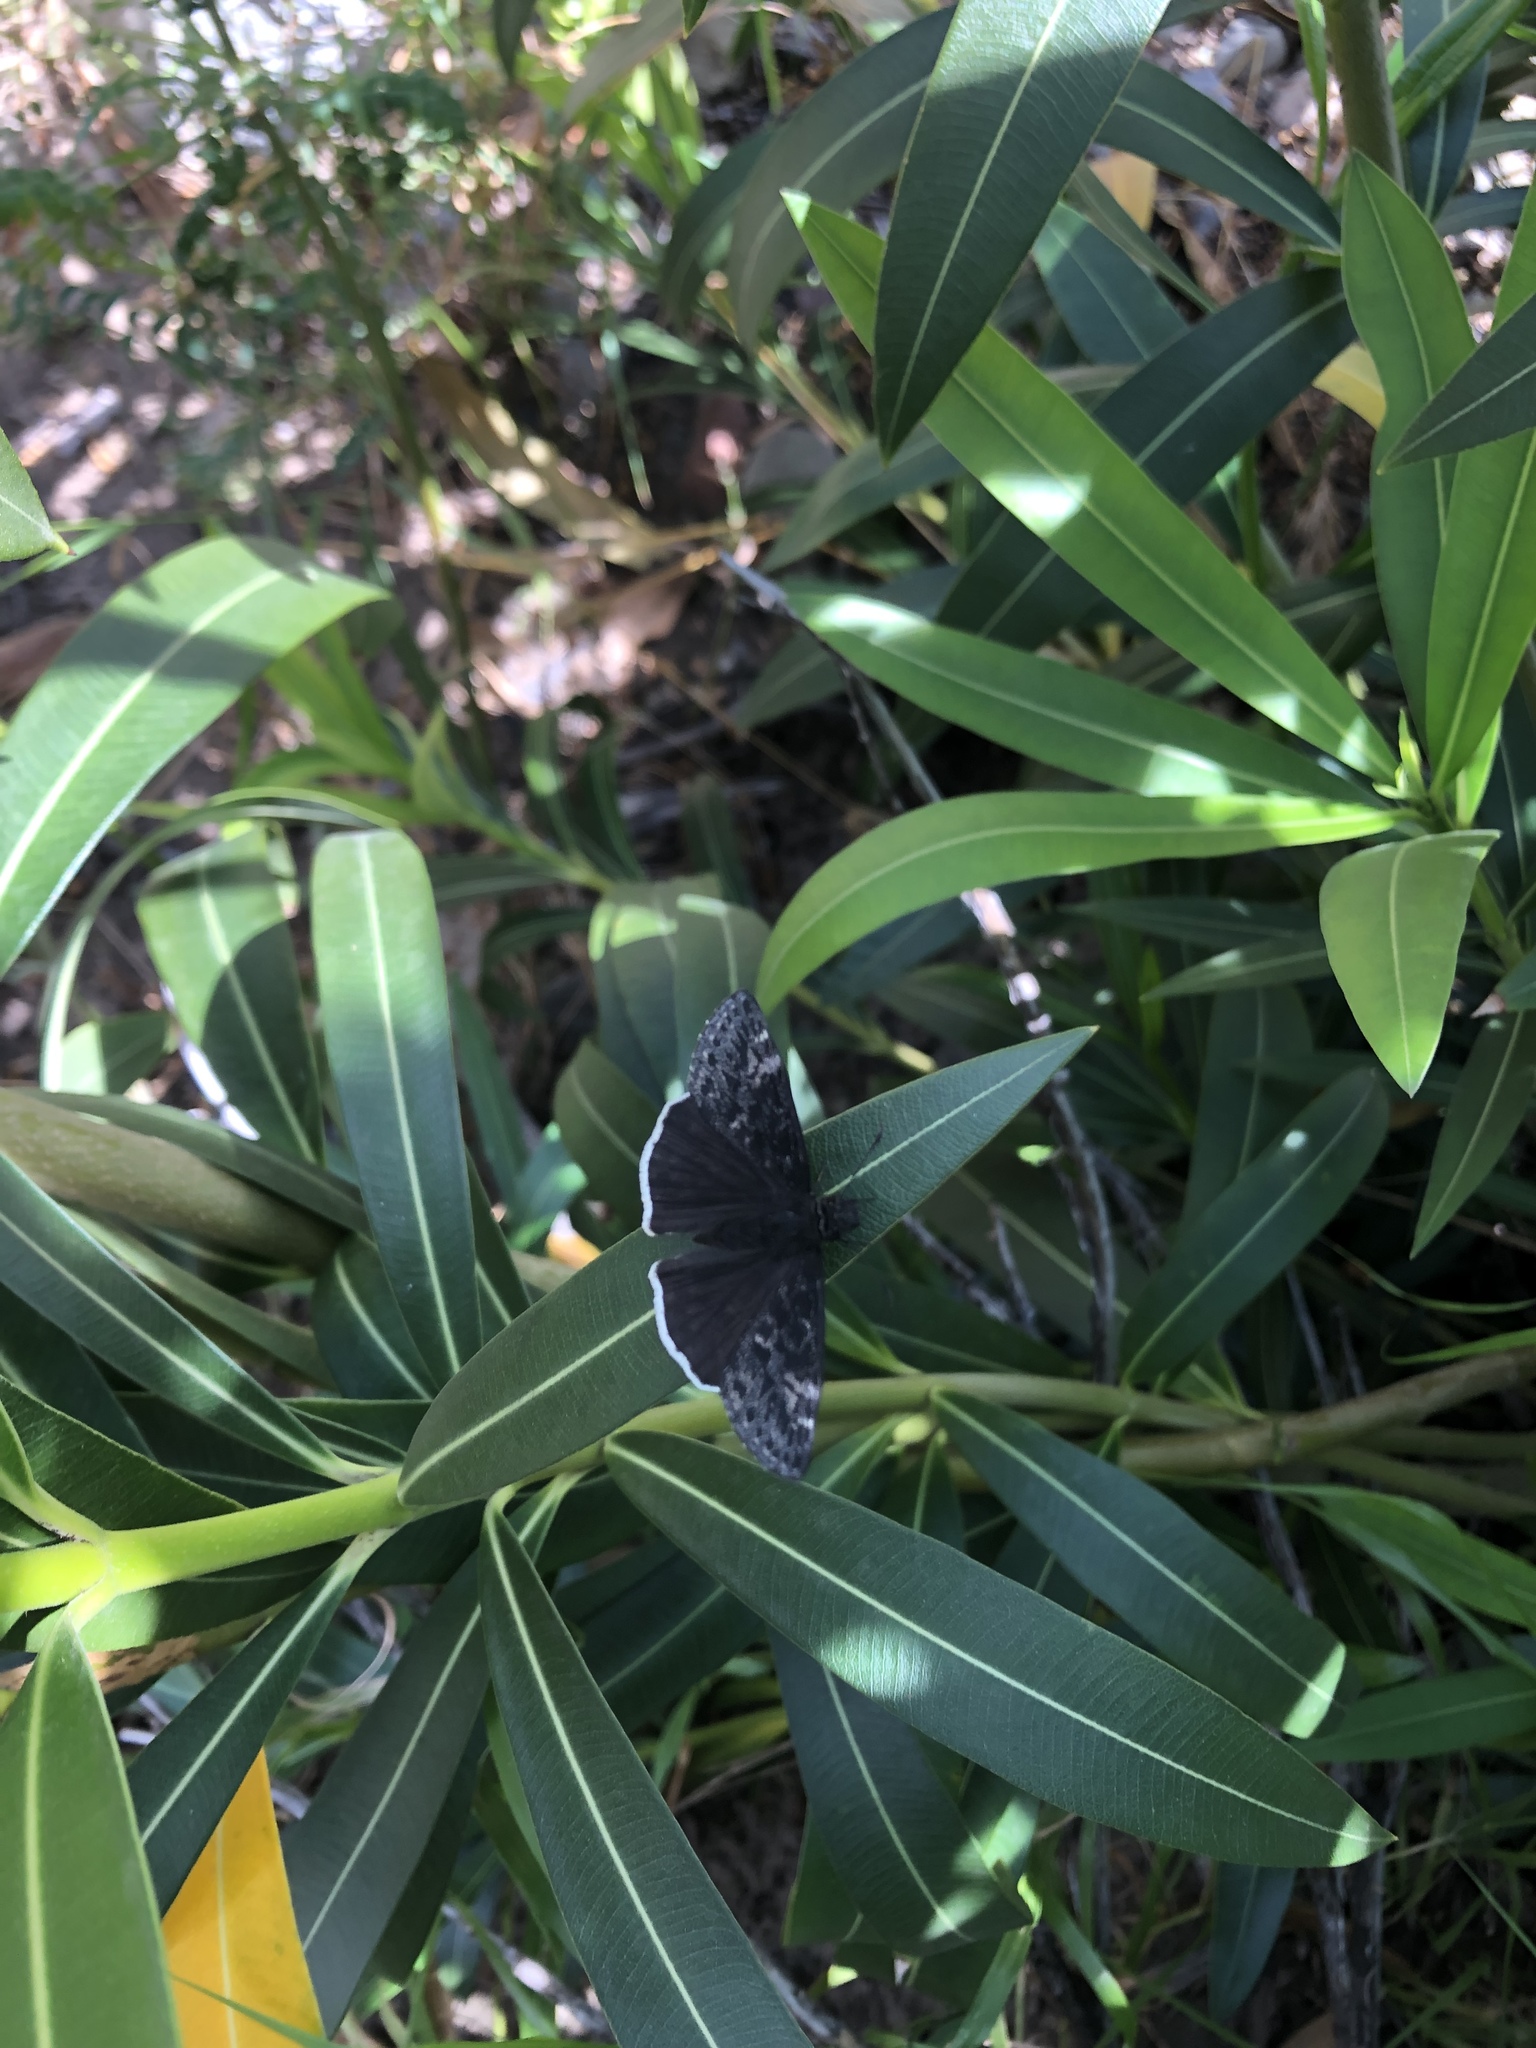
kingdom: Animalia
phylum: Arthropoda
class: Insecta
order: Lepidoptera
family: Hesperiidae
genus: Erynnis
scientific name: Erynnis funeralis
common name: Funereal duskywing
